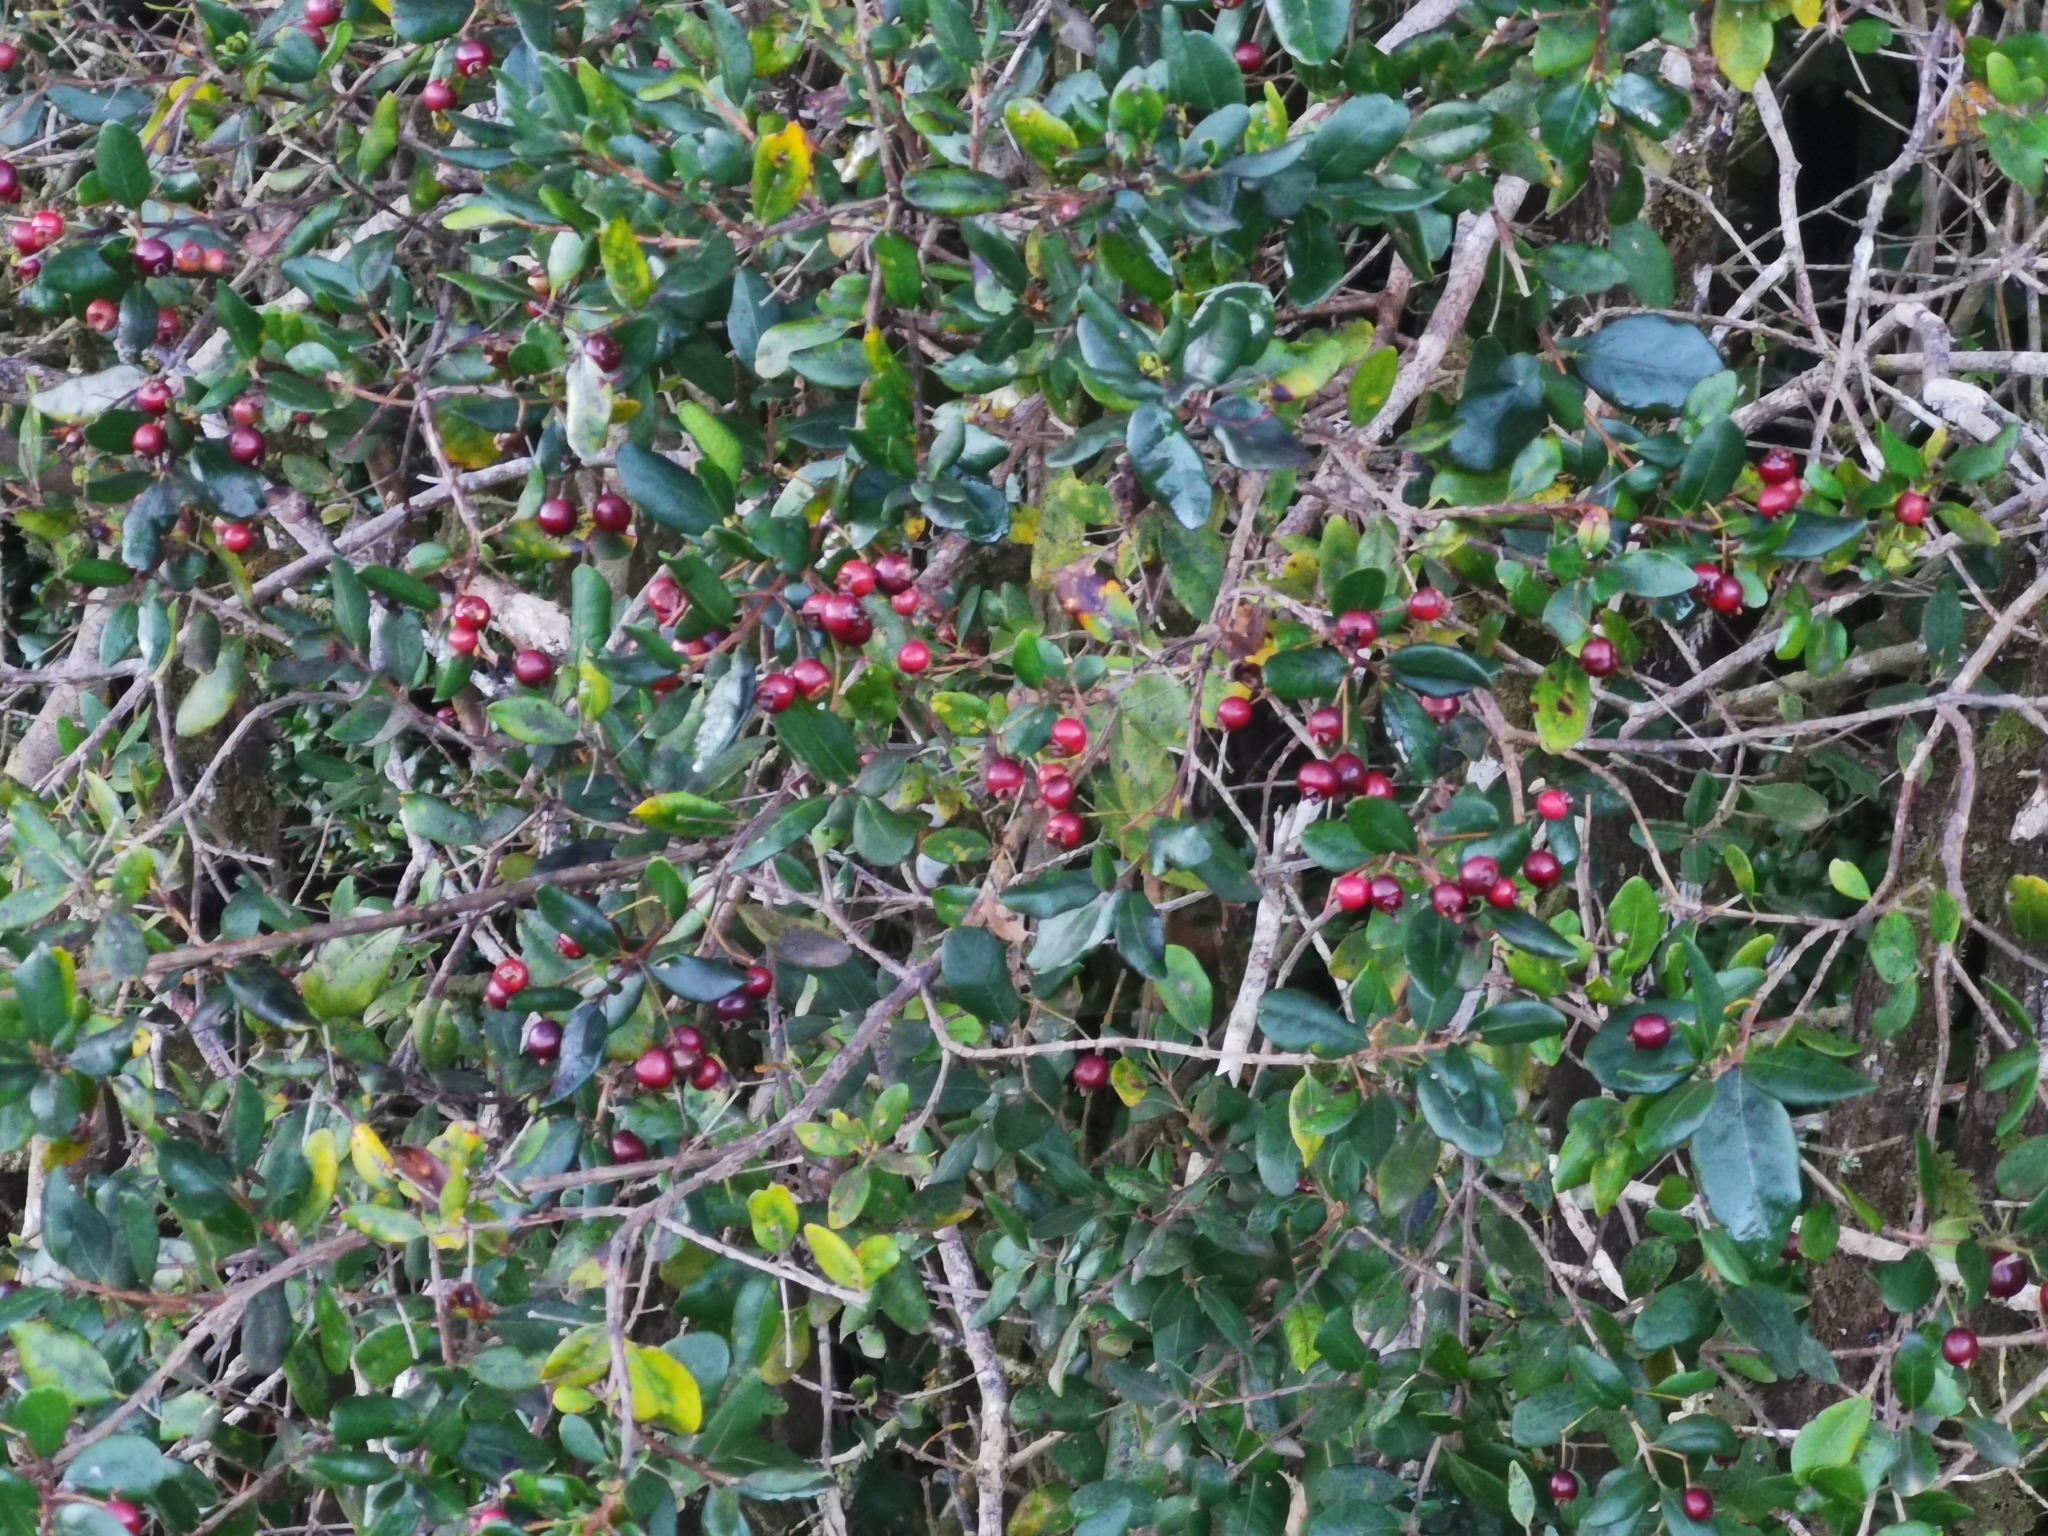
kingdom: Plantae
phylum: Tracheophyta
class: Magnoliopsida
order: Myrtales
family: Myrtaceae
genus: Blepharocalyx
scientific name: Blepharocalyx cruckshanksii
